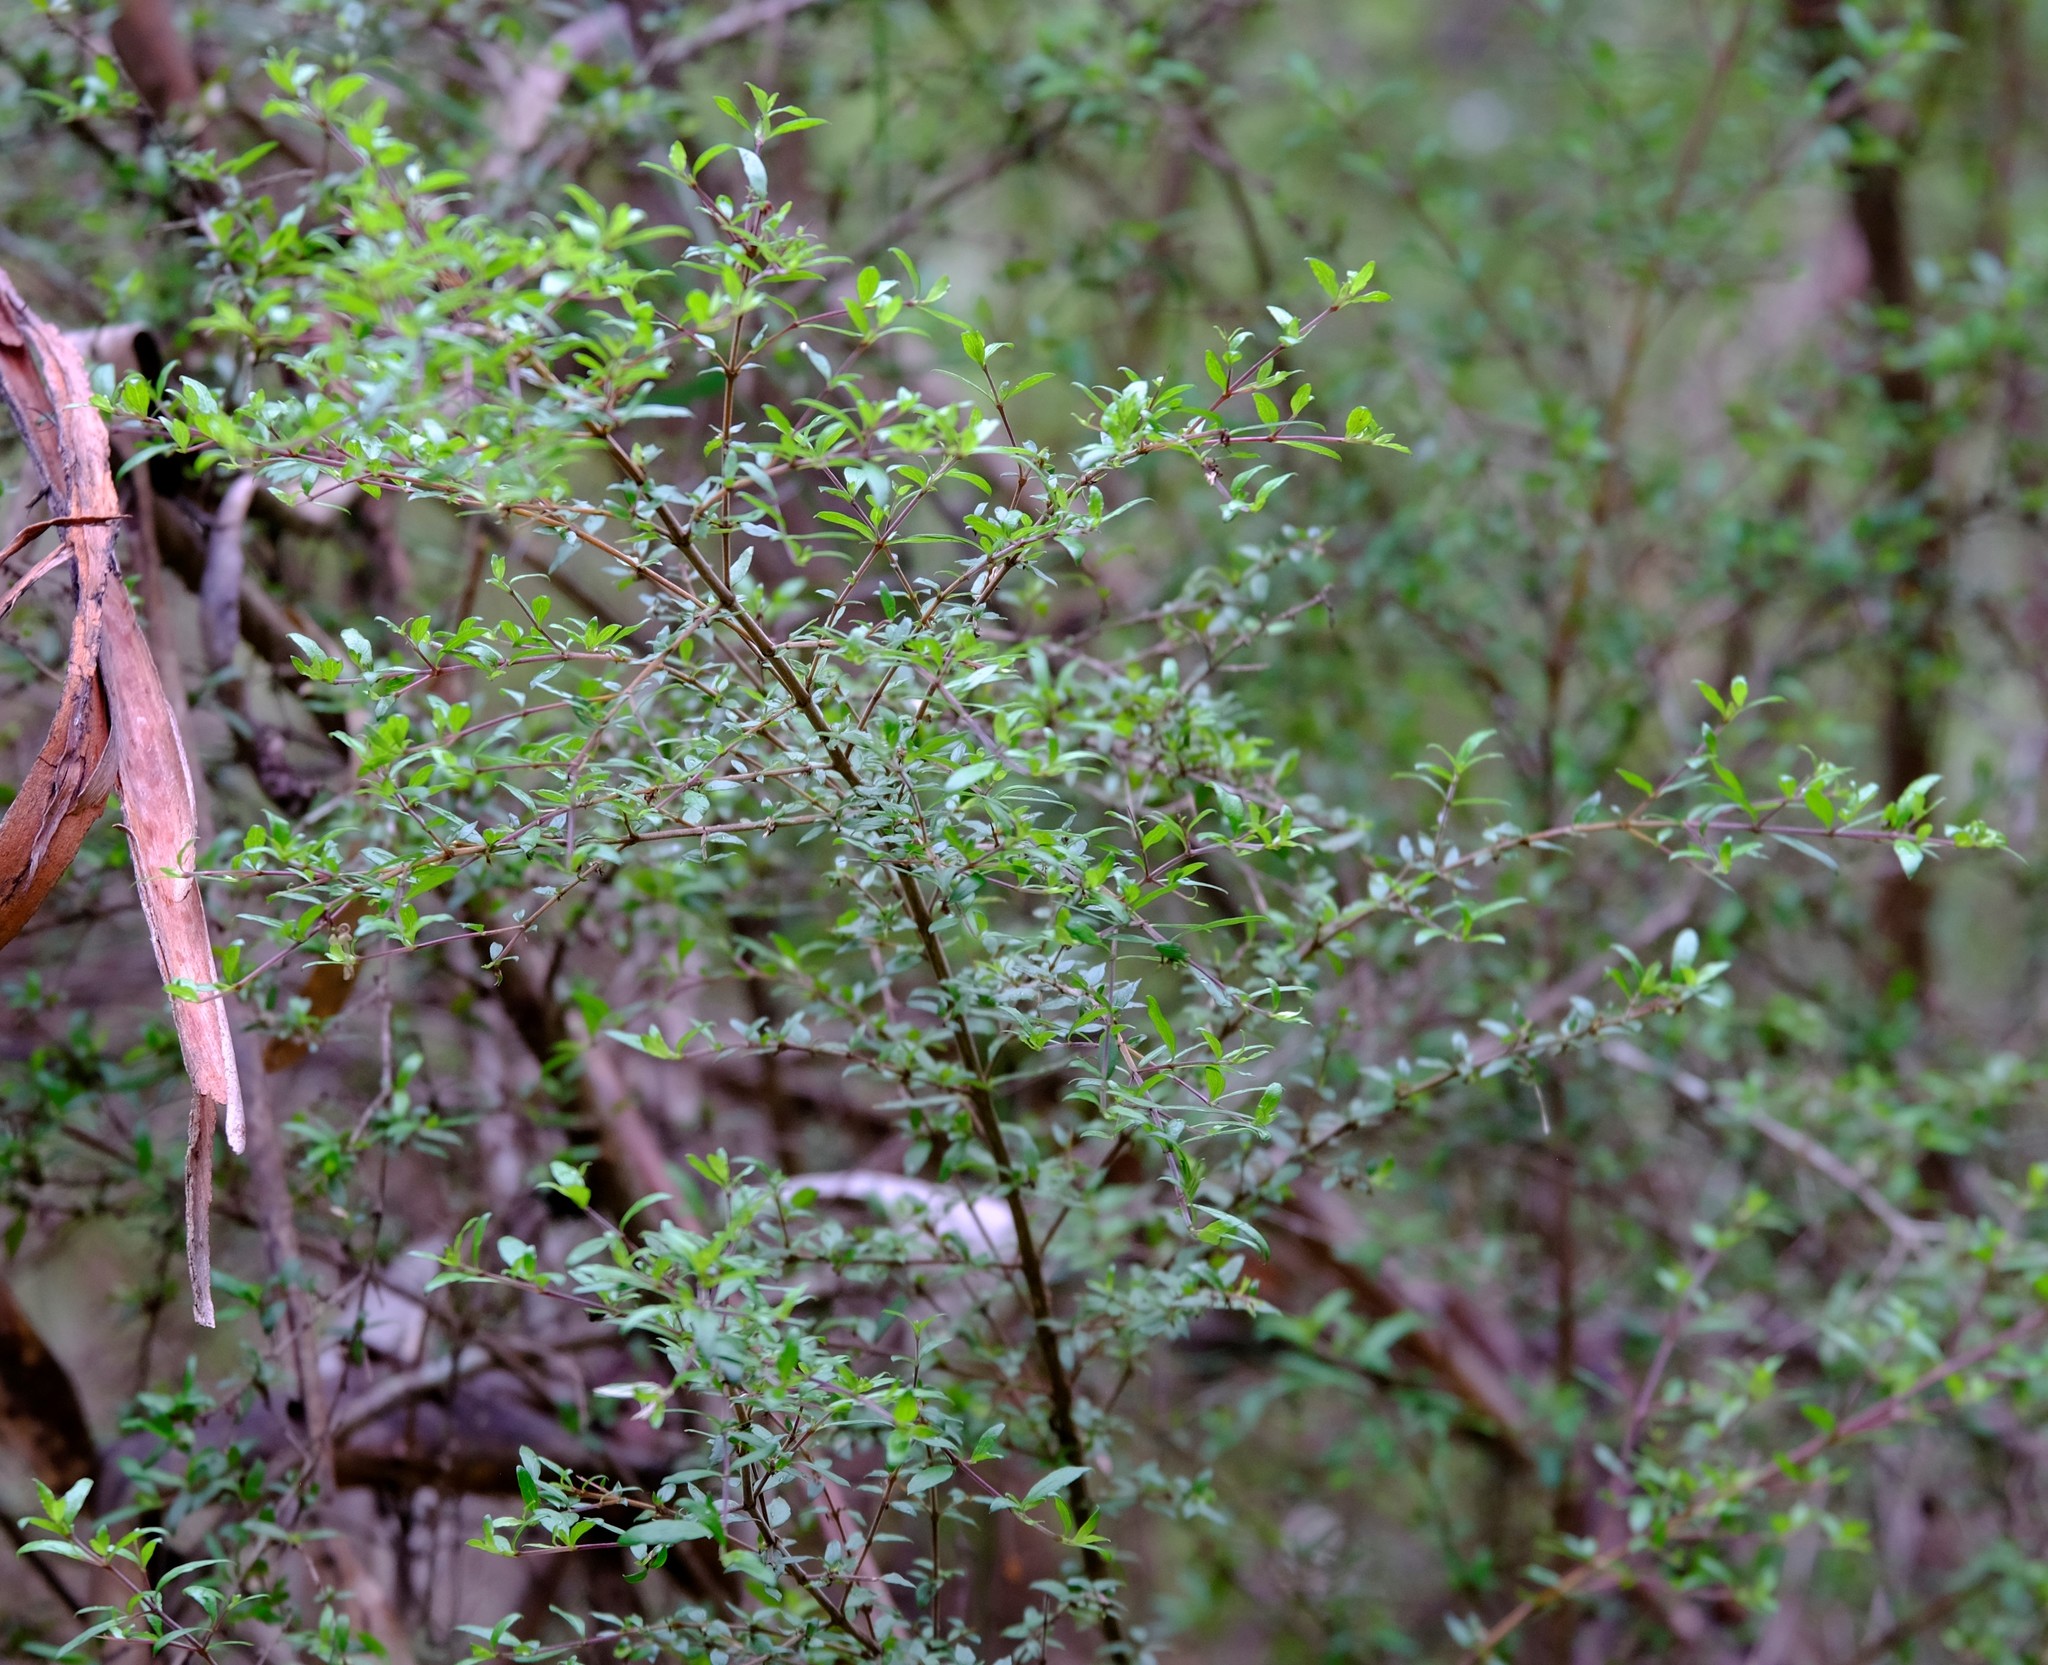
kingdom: Plantae
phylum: Tracheophyta
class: Magnoliopsida
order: Gentianales
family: Rubiaceae
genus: Coprosma
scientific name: Coprosma quadrifida
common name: Prickly currantbush
